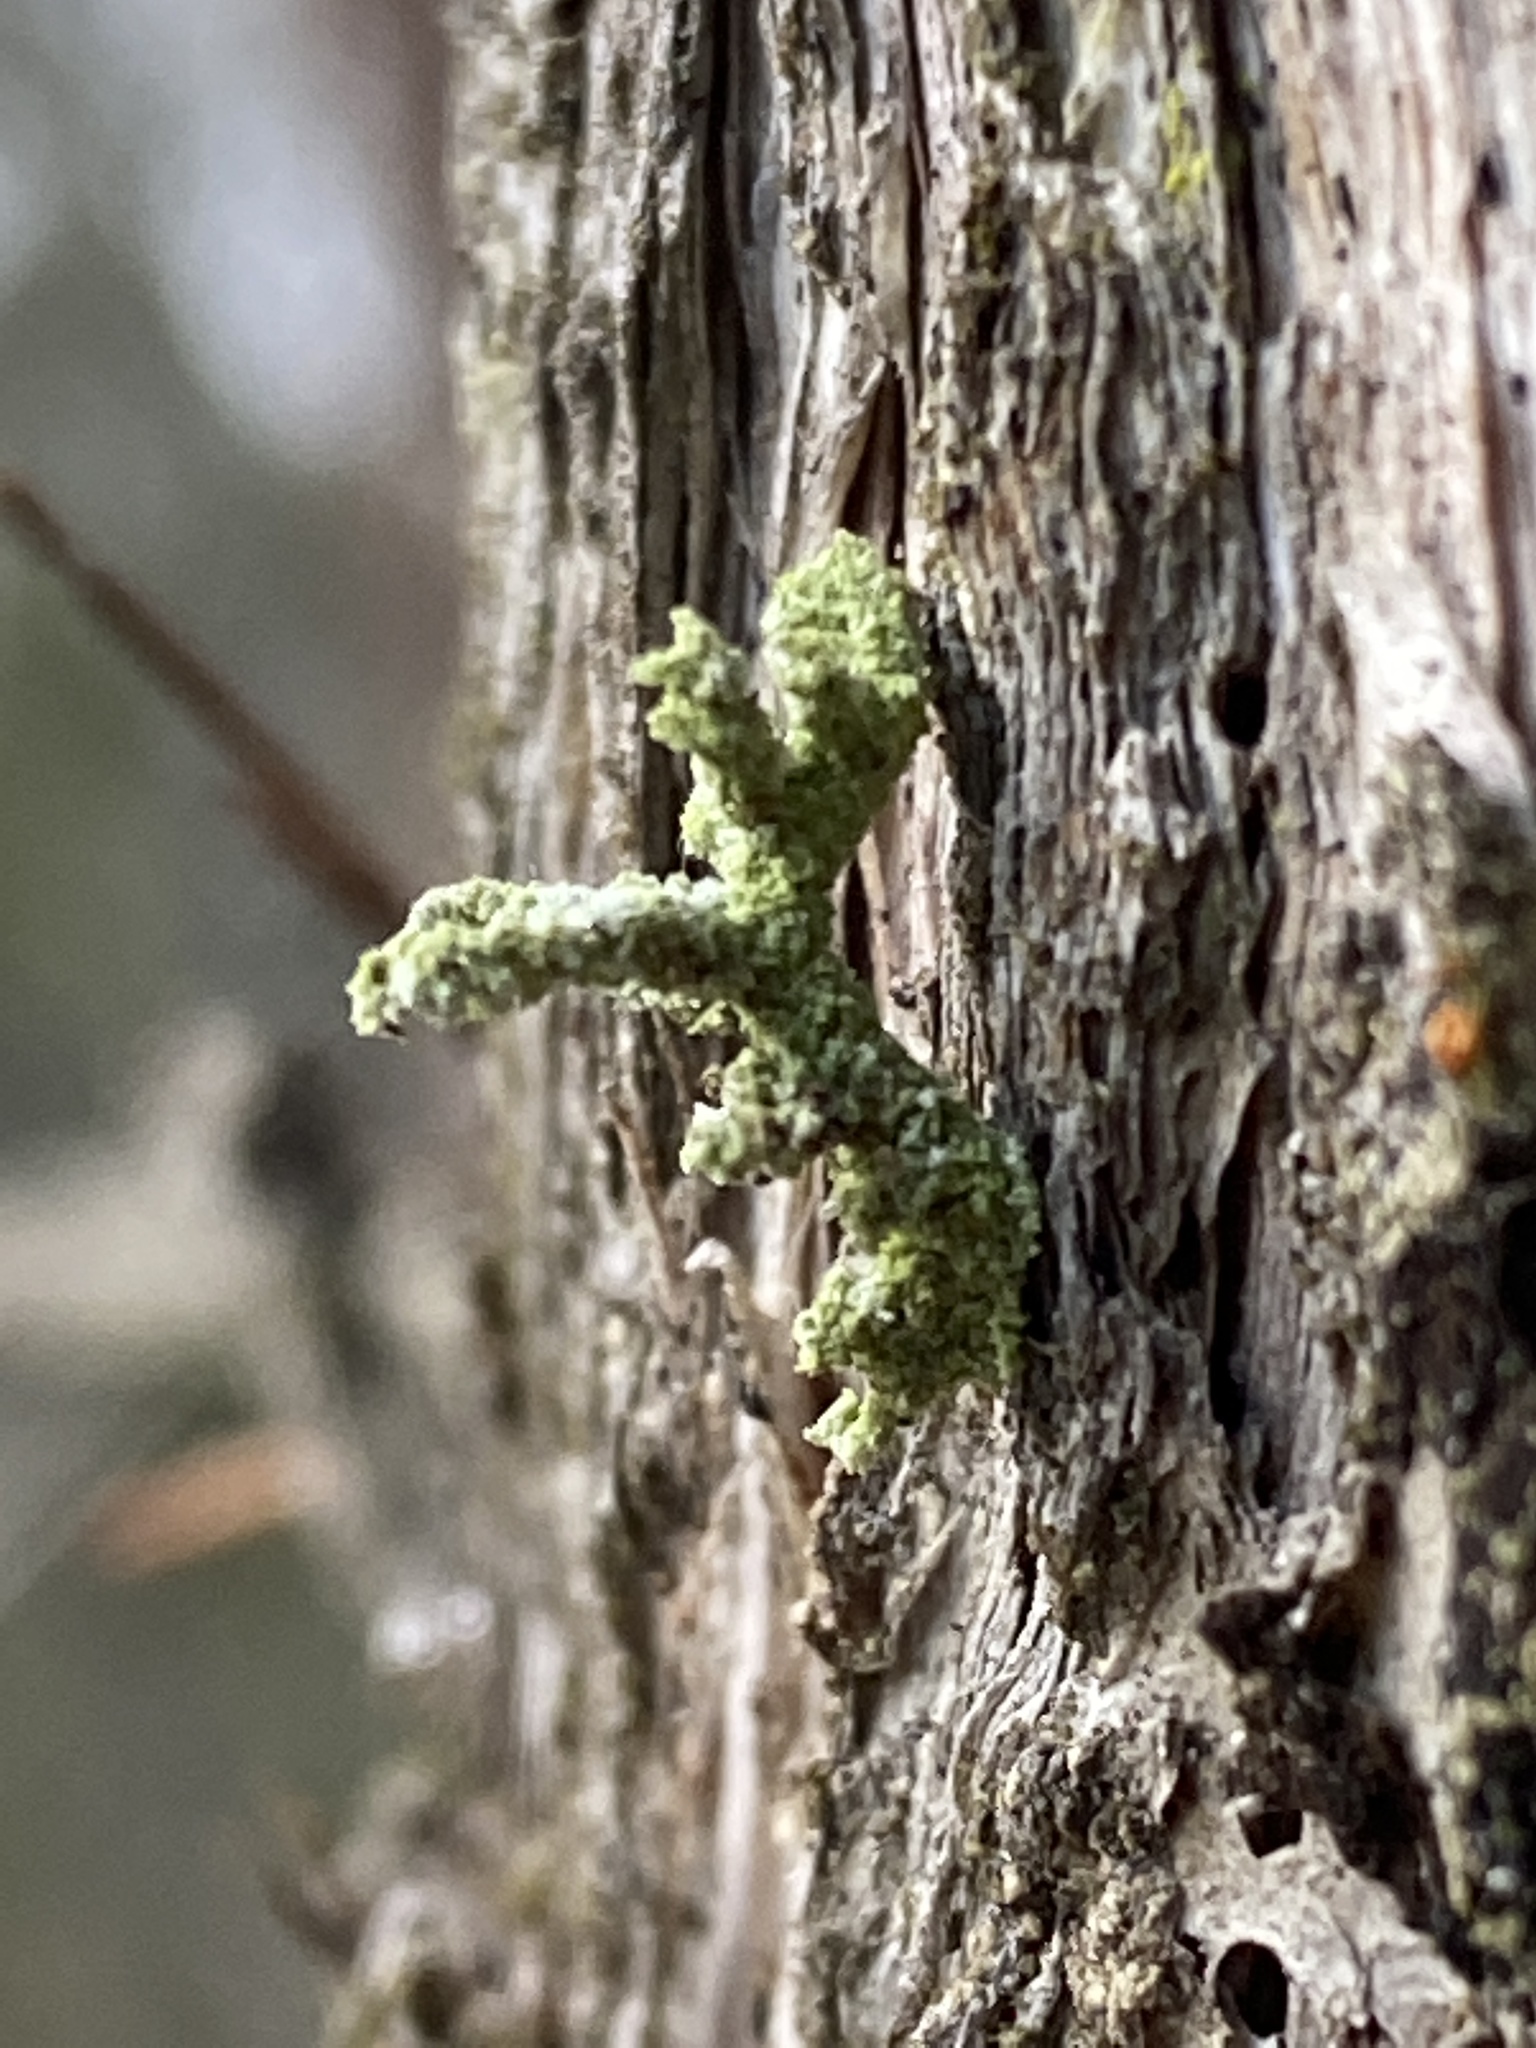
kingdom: Animalia
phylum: Arthropoda
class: Insecta
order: Lepidoptera
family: Noctuidae
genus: Enispa
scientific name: Enispa prolectus
